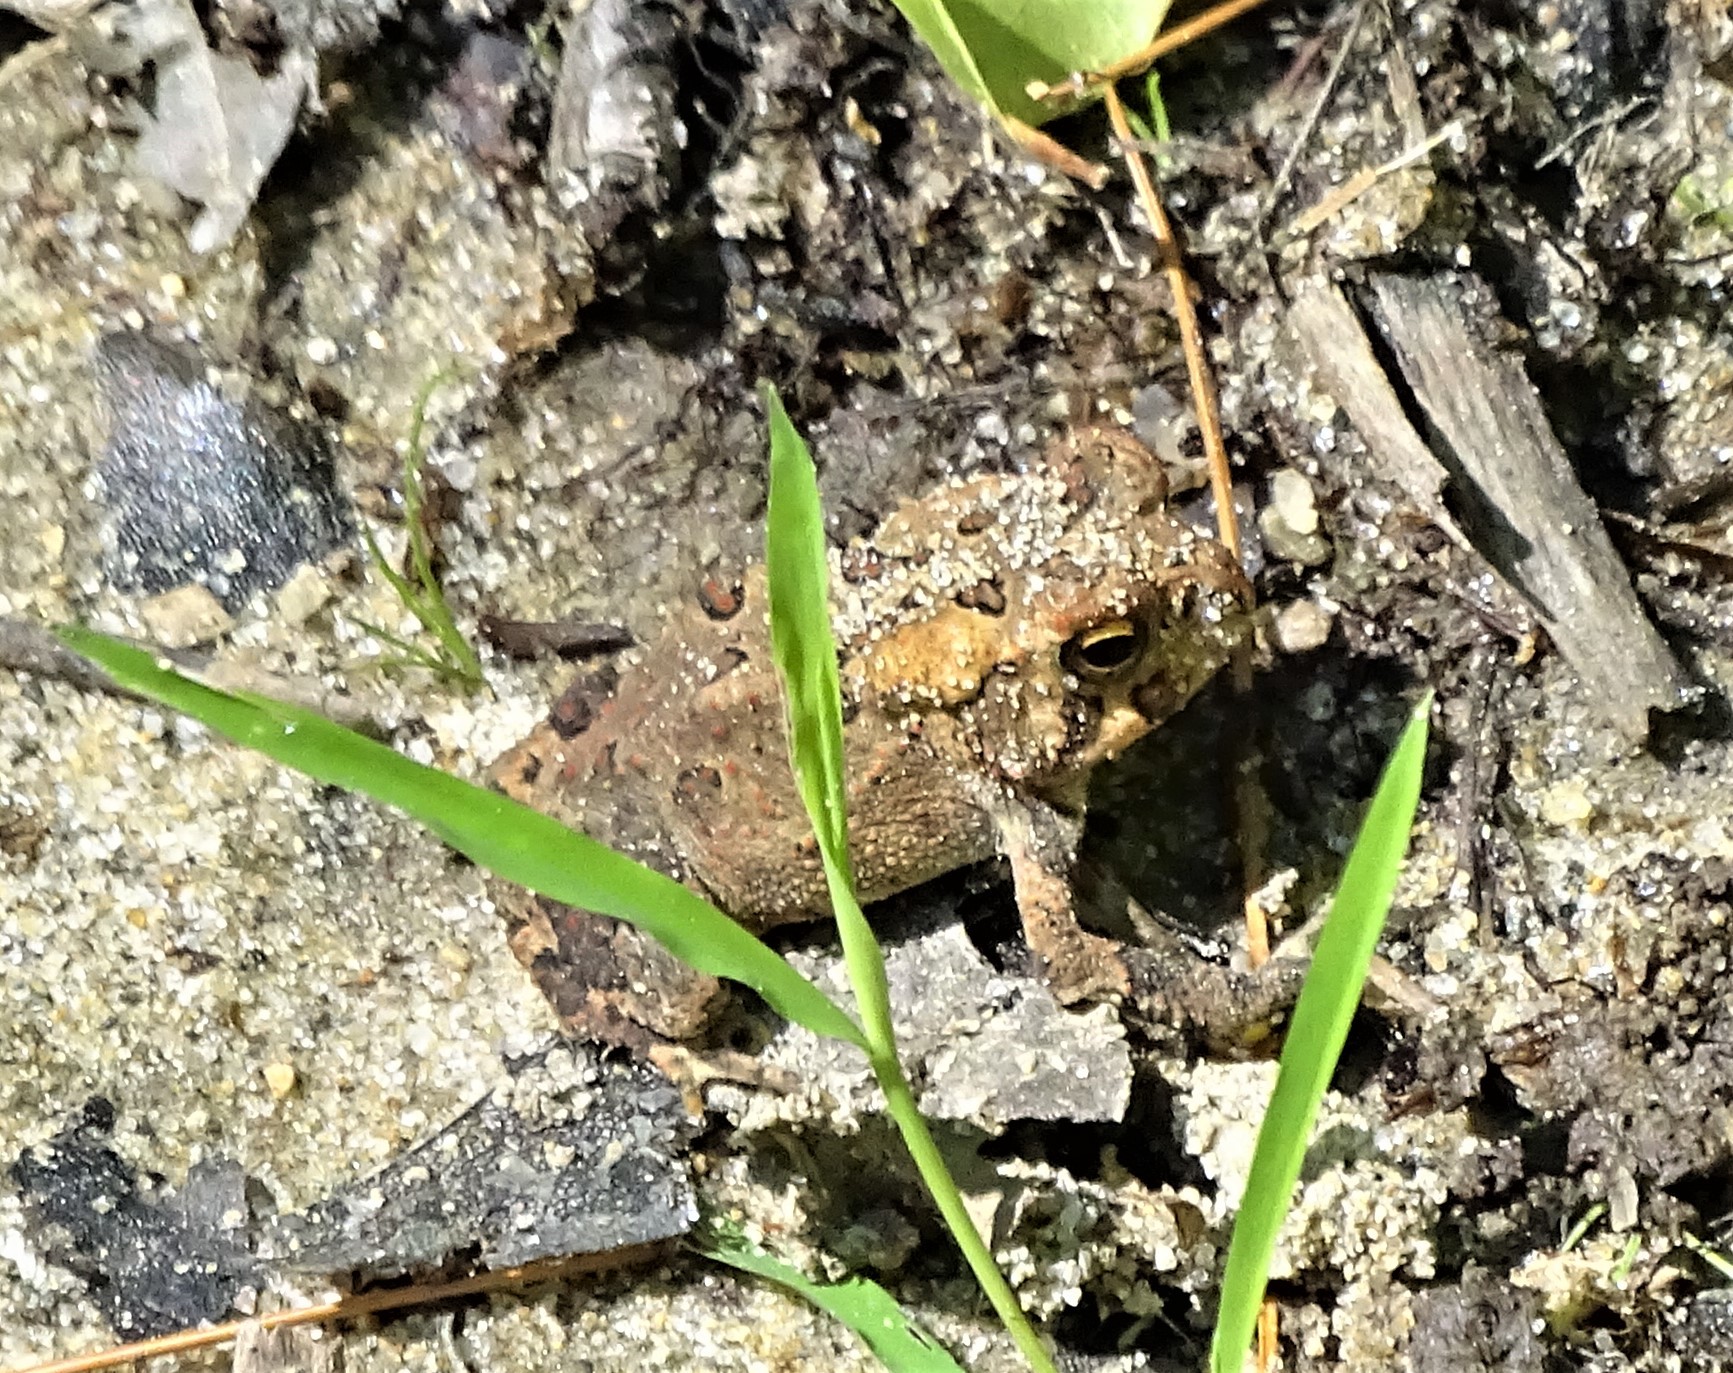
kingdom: Animalia
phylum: Chordata
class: Amphibia
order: Anura
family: Bufonidae
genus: Anaxyrus
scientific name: Anaxyrus americanus
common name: American toad
